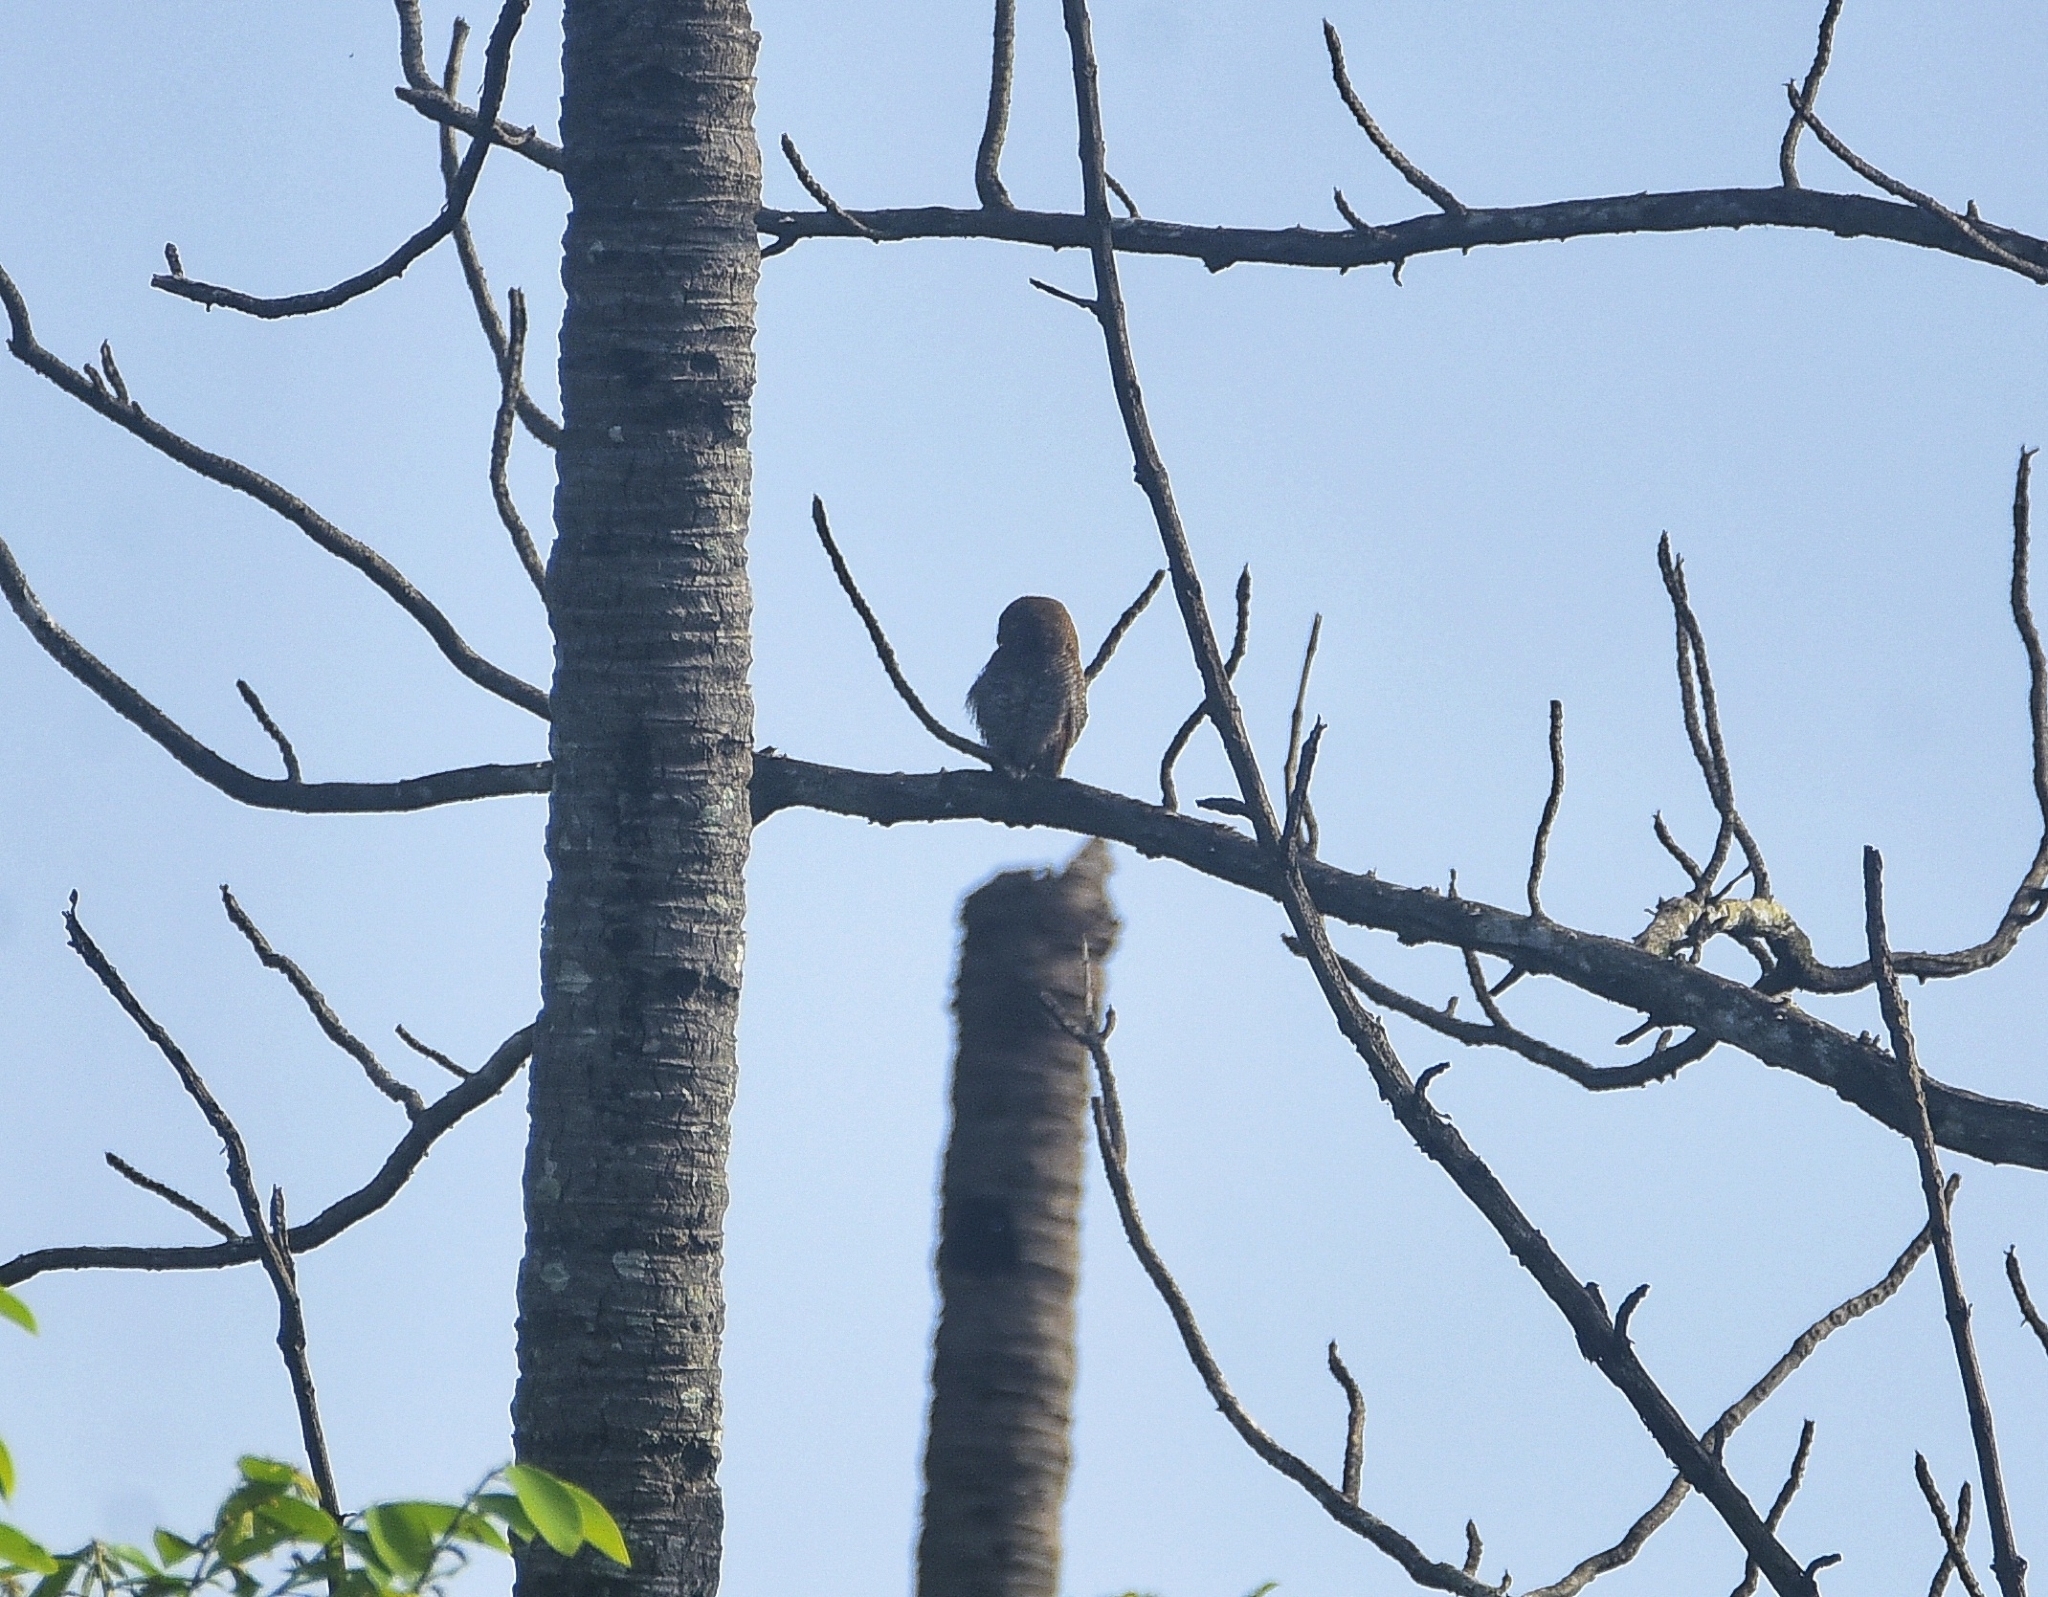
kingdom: Animalia
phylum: Chordata
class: Aves
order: Strigiformes
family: Strigidae
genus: Glaucidium
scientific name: Glaucidium radiatum
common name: Jungle owlet
